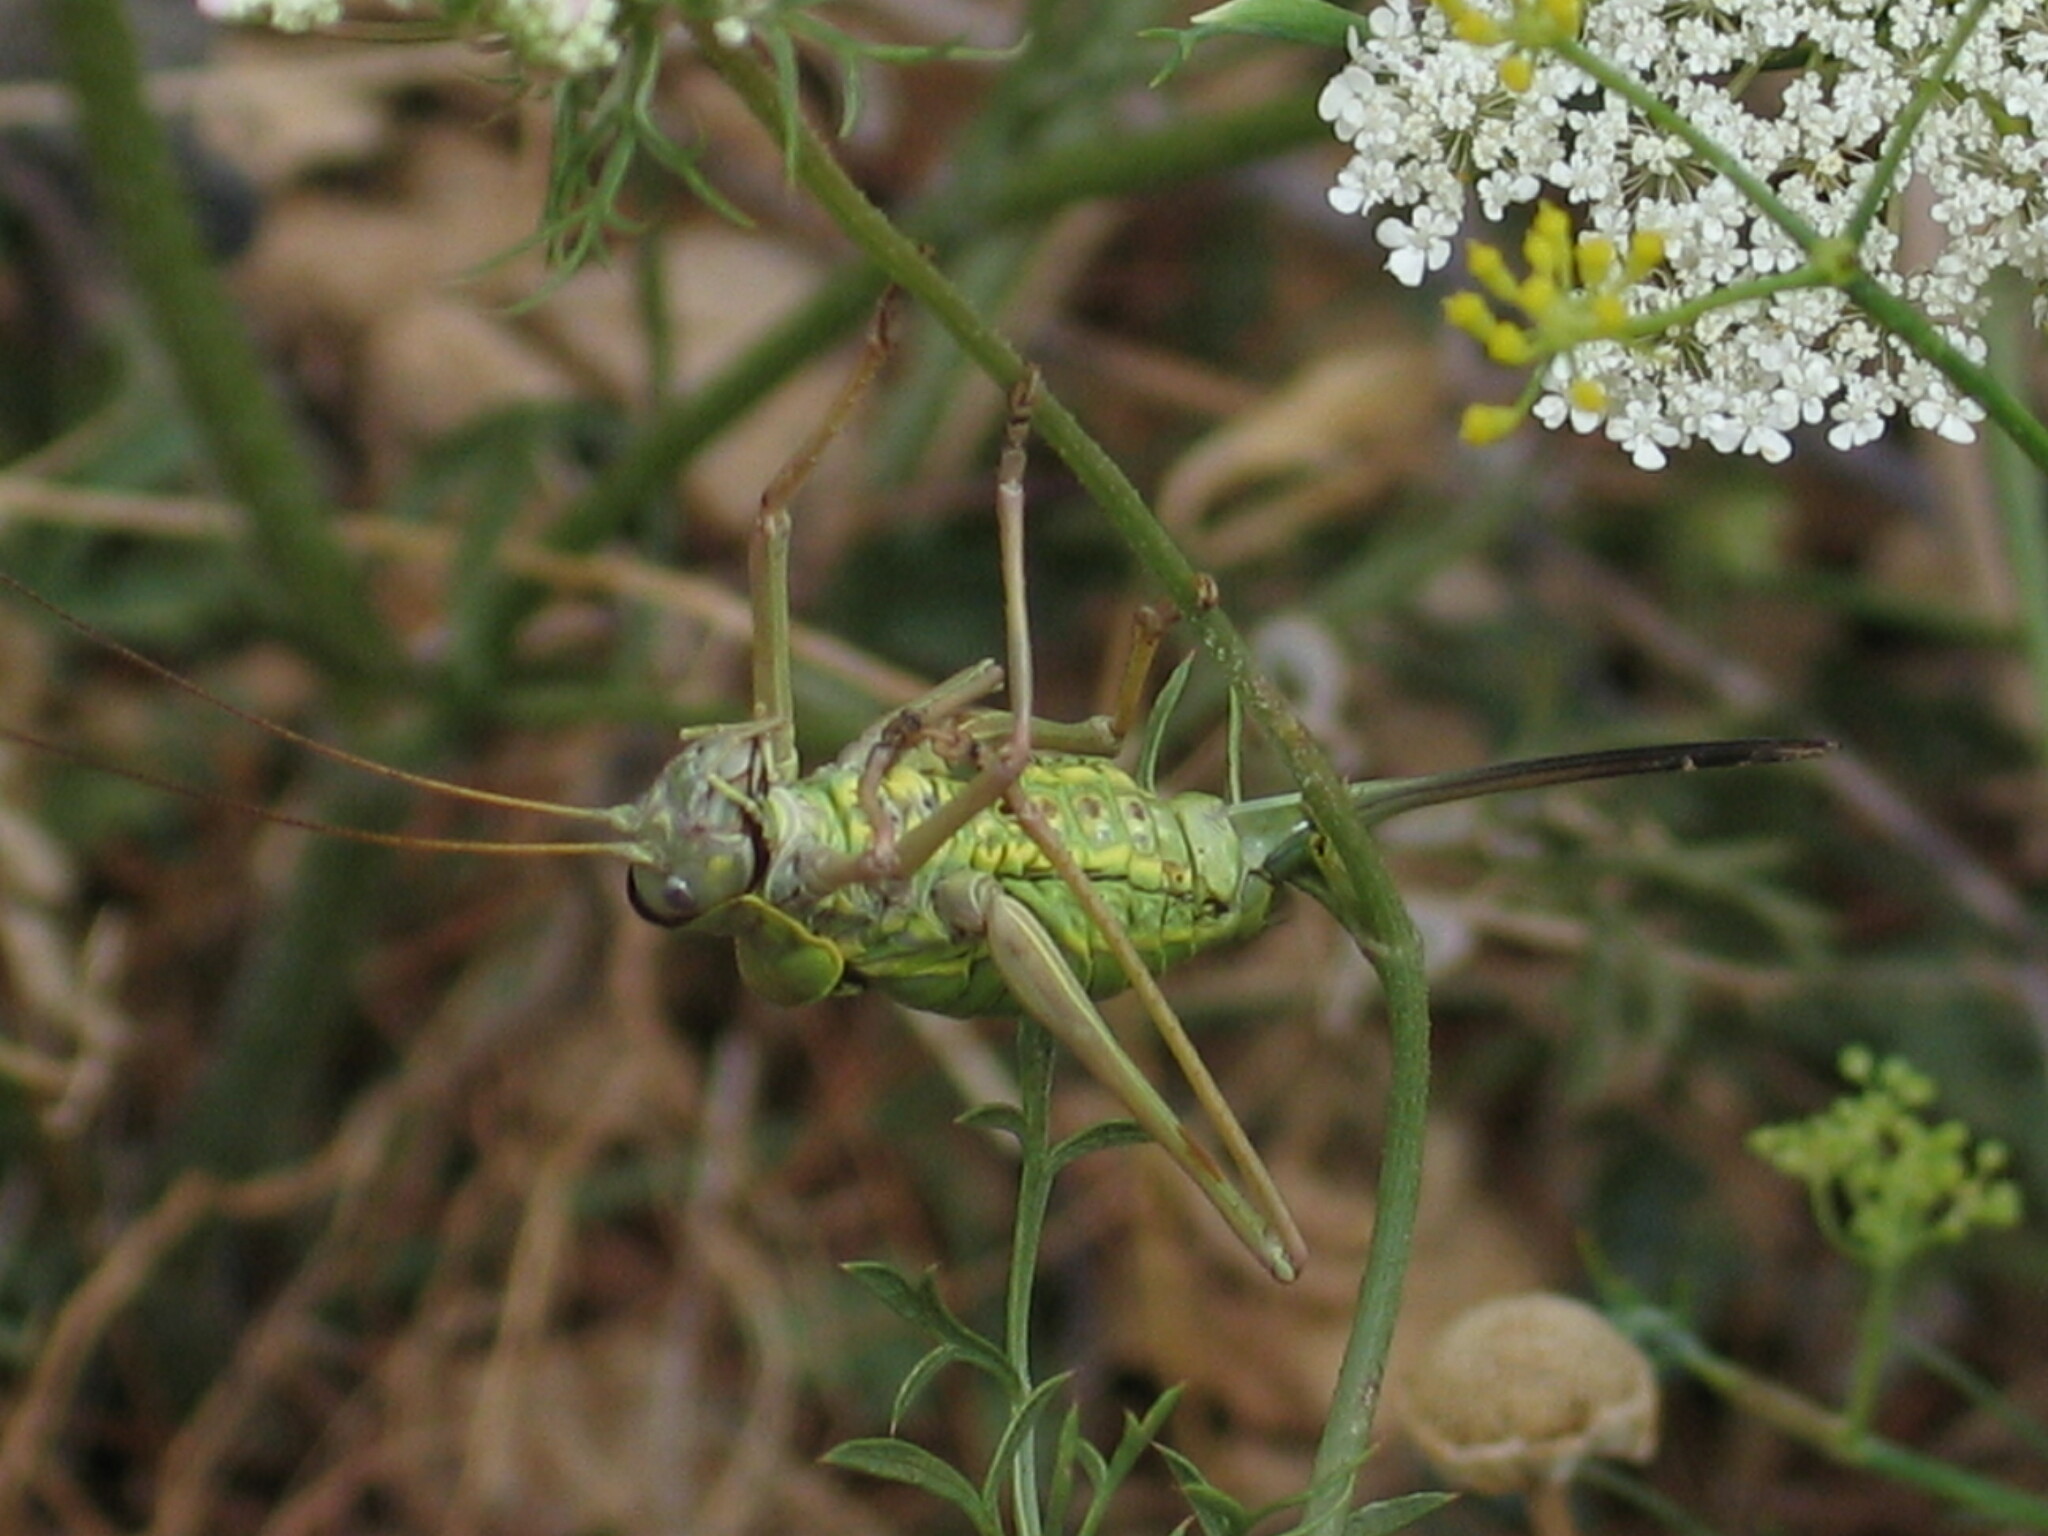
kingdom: Animalia
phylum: Arthropoda
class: Insecta
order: Orthoptera
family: Tettigoniidae
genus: Dinarippiger
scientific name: Dinarippiger discoidalis
